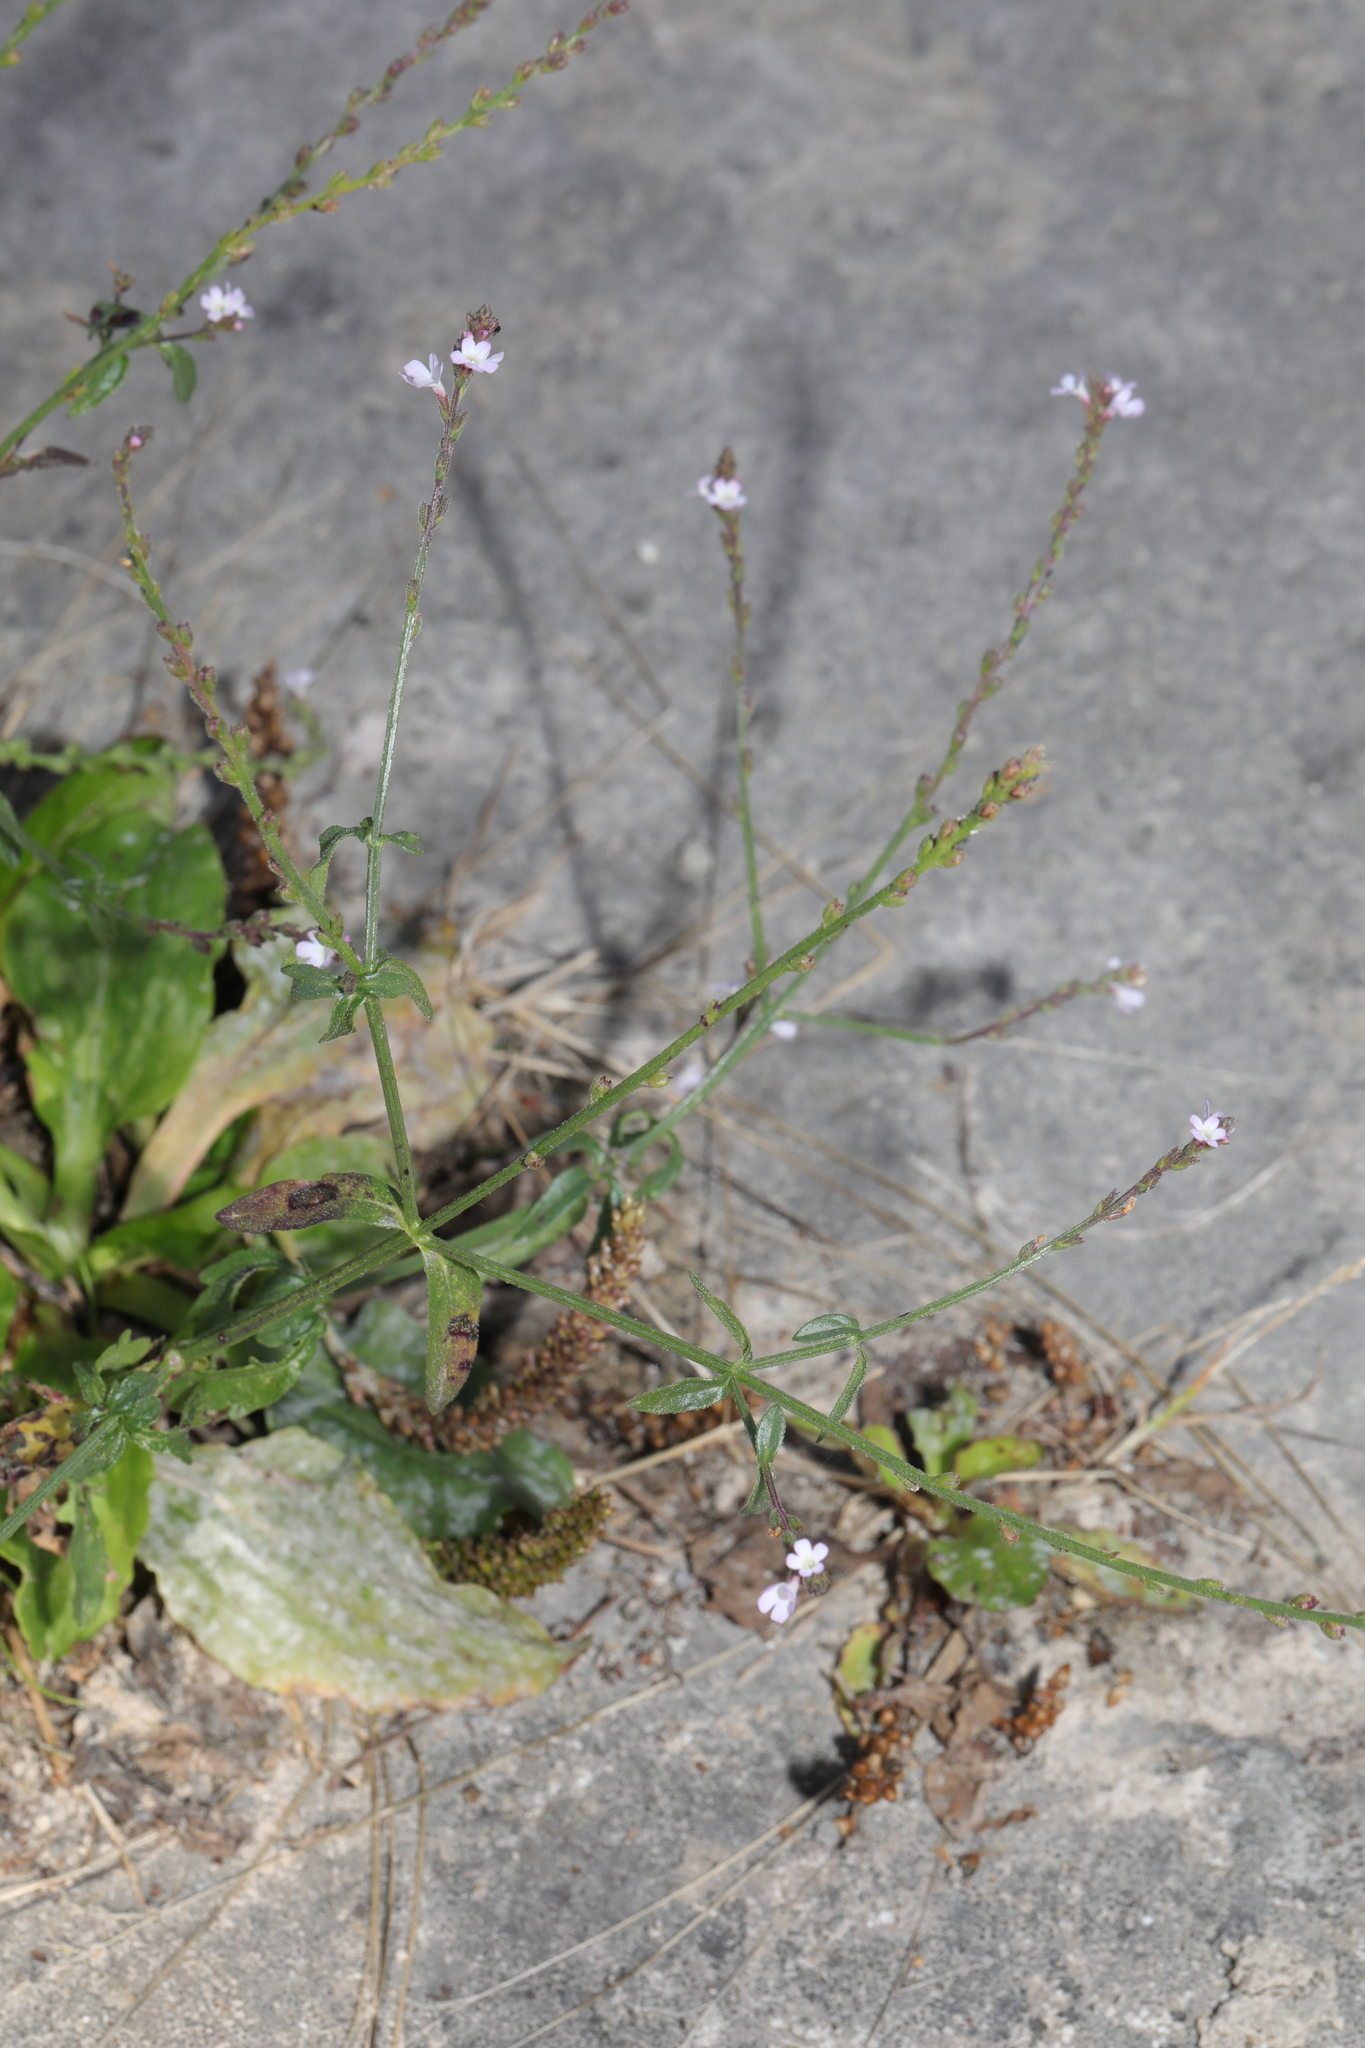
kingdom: Plantae
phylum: Tracheophyta
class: Magnoliopsida
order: Lamiales
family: Verbenaceae
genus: Verbena
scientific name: Verbena officinalis
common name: Vervain
